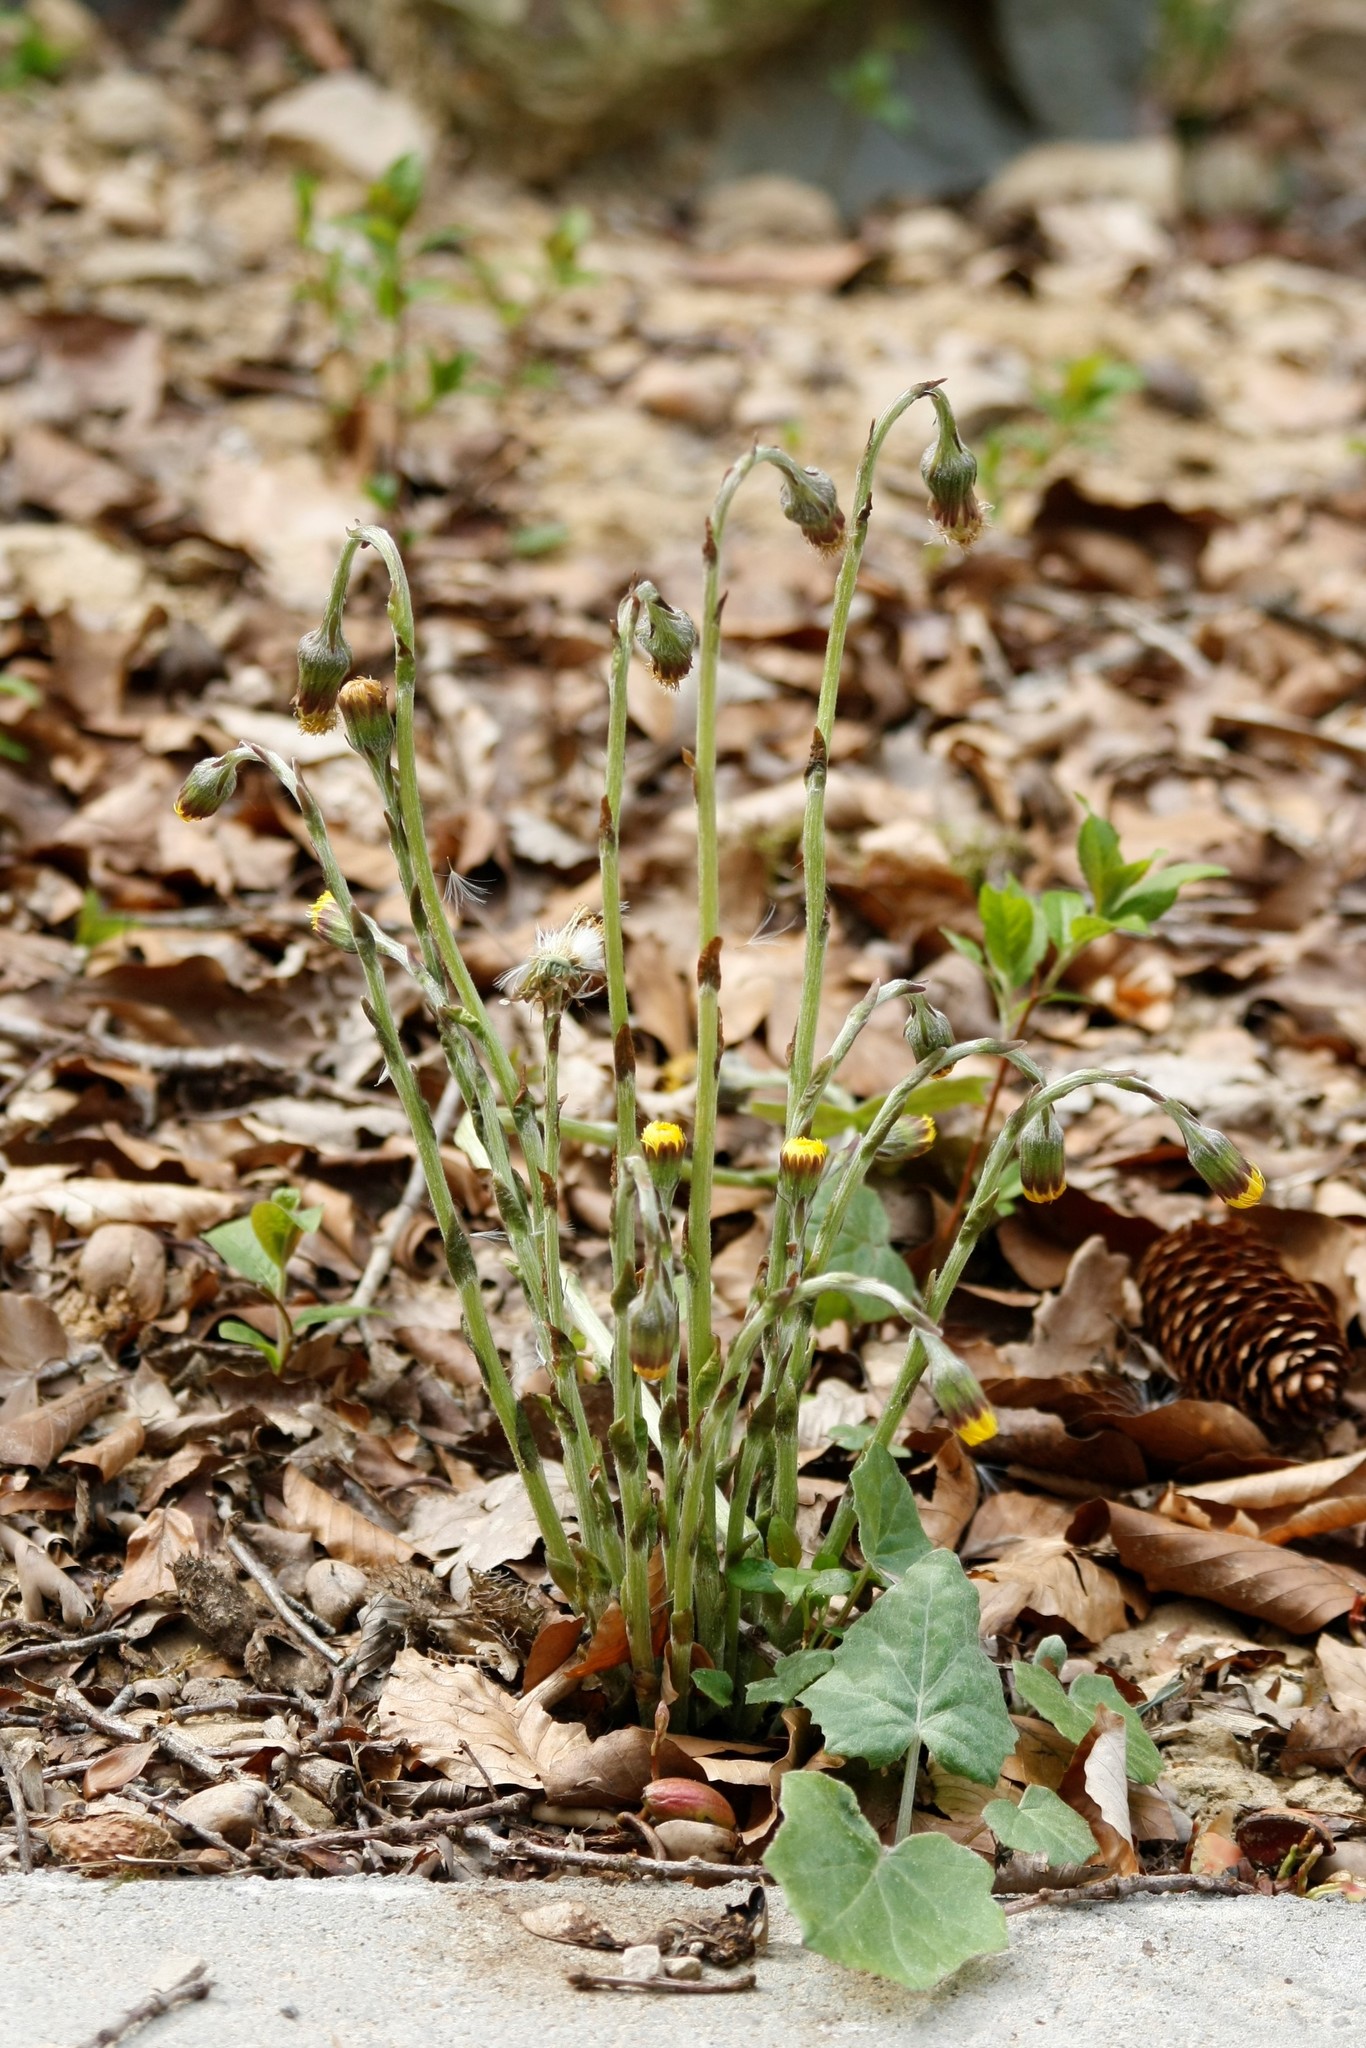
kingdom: Plantae
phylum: Tracheophyta
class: Magnoliopsida
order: Asterales
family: Asteraceae
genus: Tussilago
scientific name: Tussilago farfara
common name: Coltsfoot
